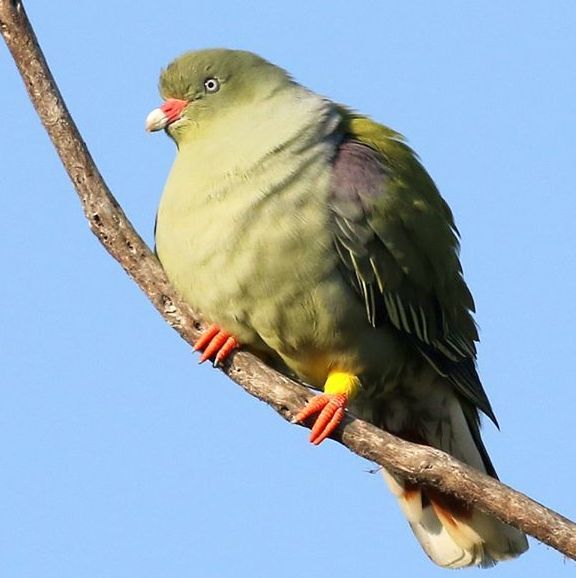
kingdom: Animalia
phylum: Chordata
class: Aves
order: Columbiformes
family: Columbidae
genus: Treron
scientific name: Treron calvus
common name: African green pigeon
